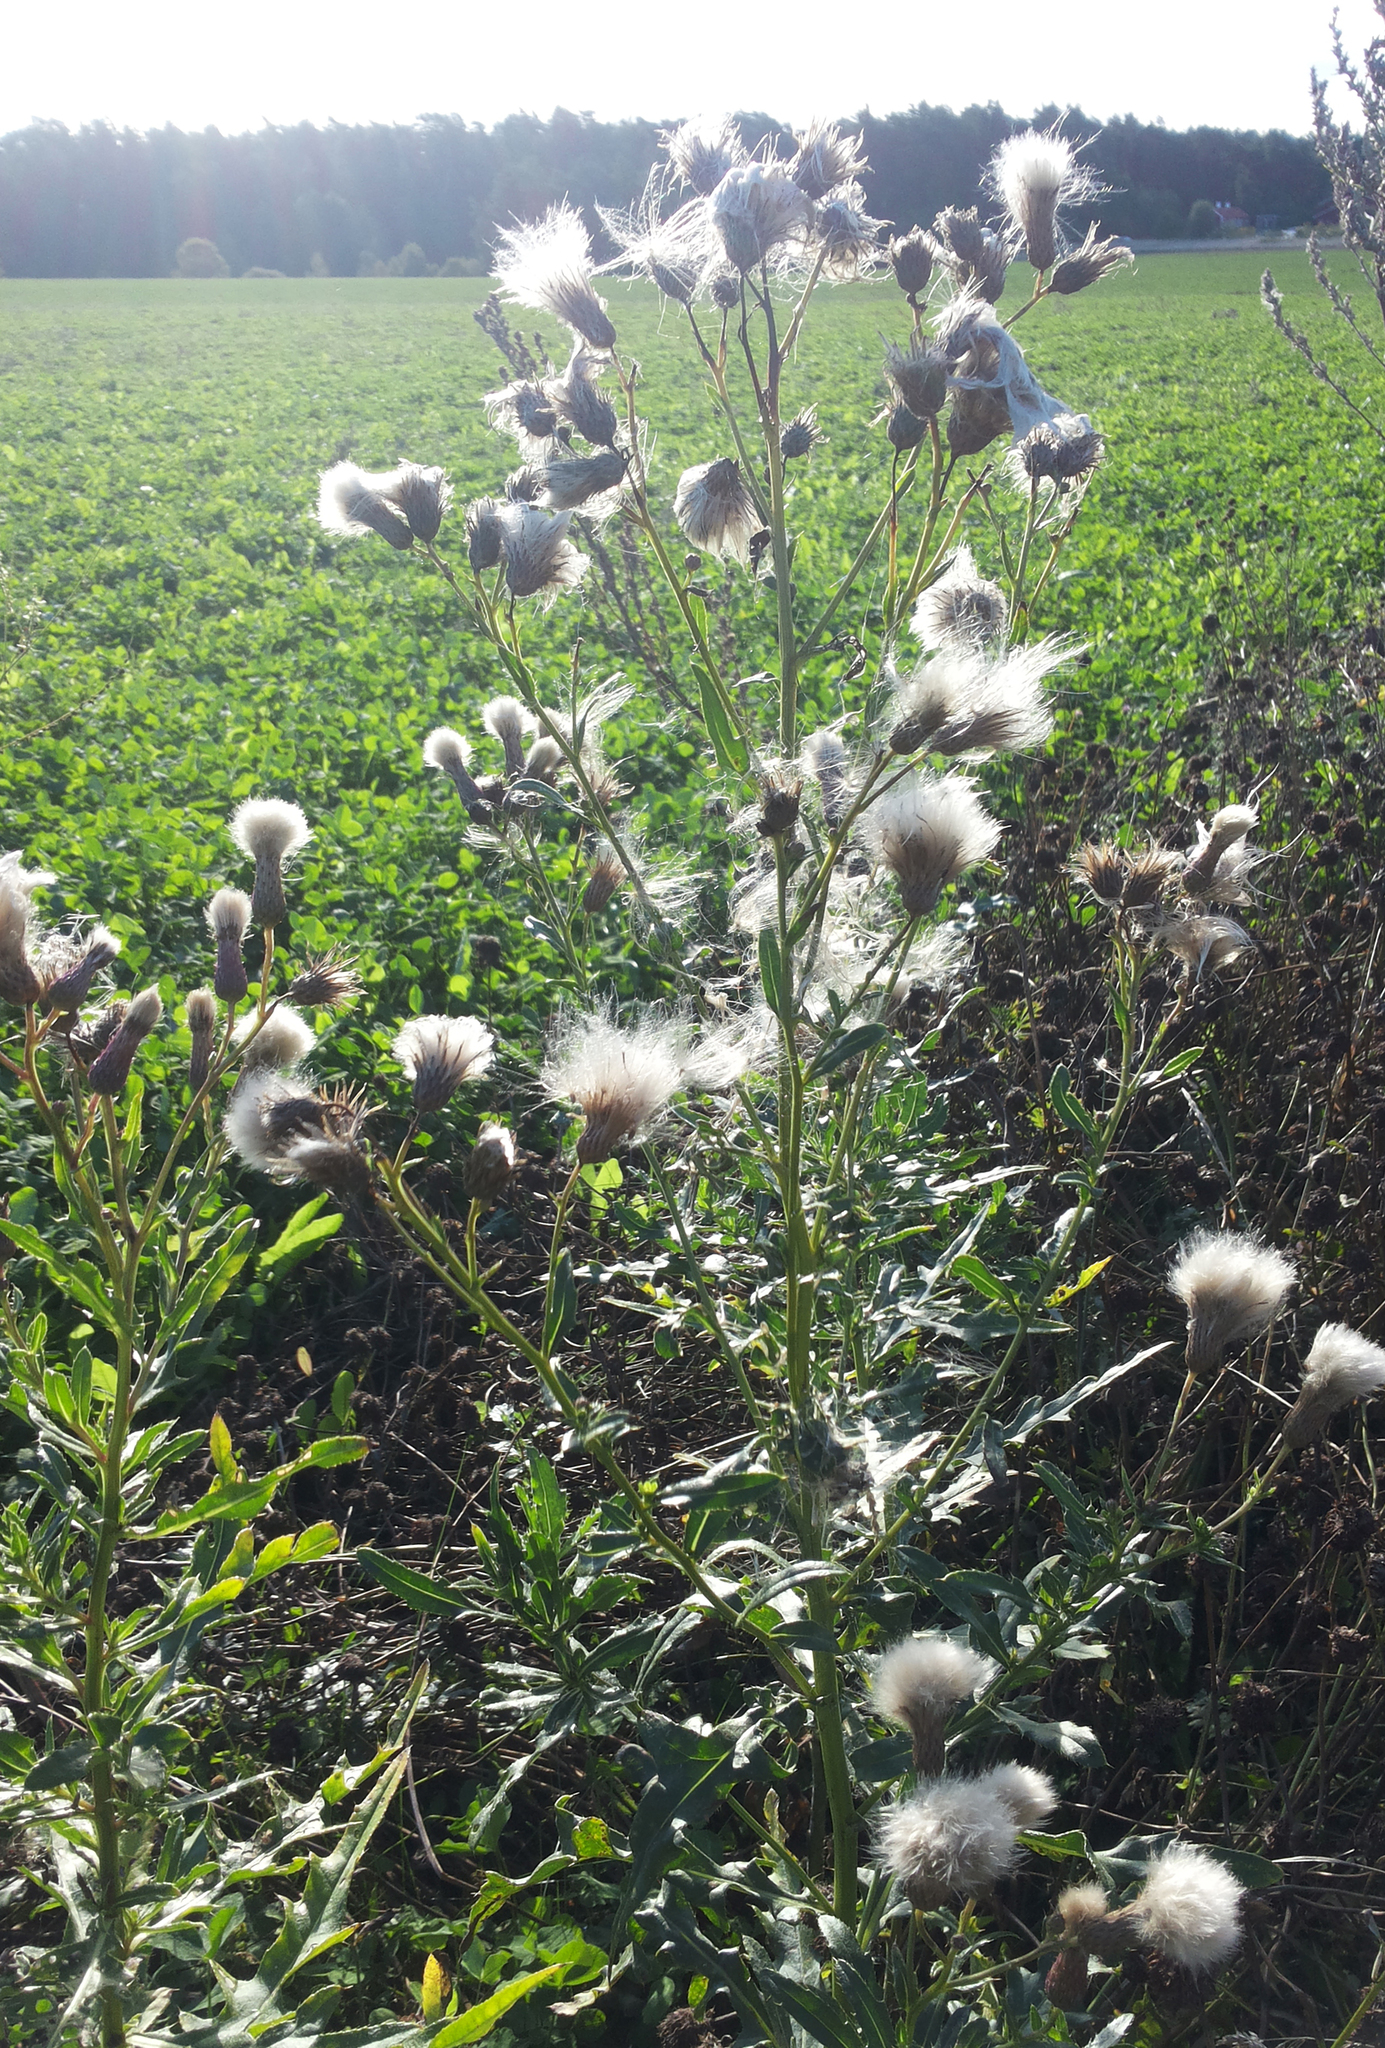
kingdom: Plantae
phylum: Tracheophyta
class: Magnoliopsida
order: Asterales
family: Asteraceae
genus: Cirsium
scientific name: Cirsium arvense
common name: Creeping thistle
